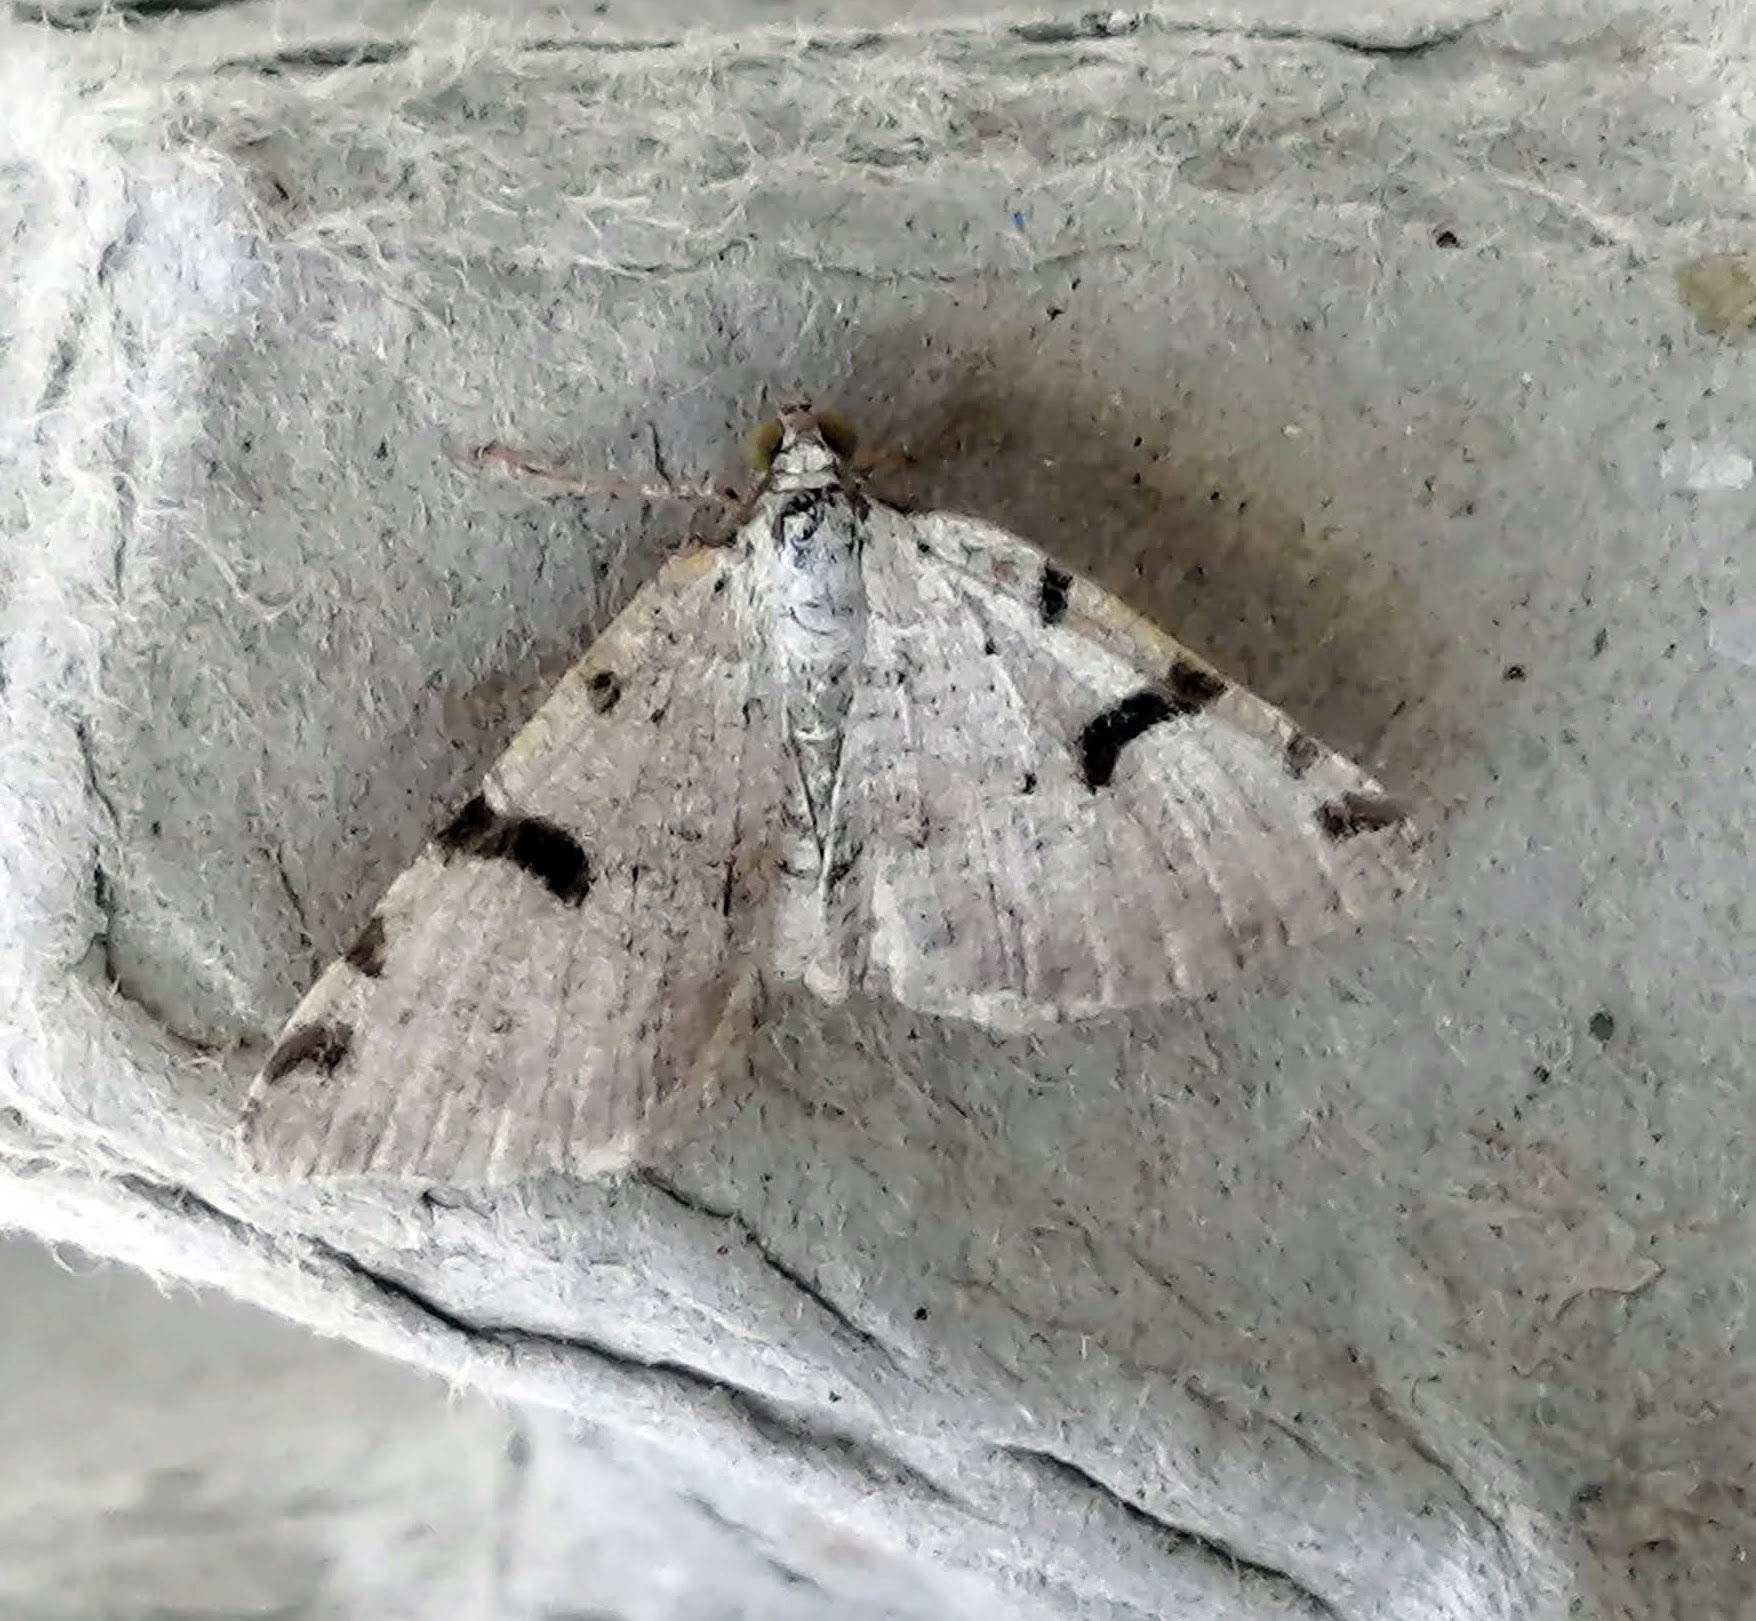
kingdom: Animalia
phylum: Arthropoda
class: Insecta
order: Lepidoptera
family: Geometridae
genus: Macaria
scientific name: Macaria subcessaria
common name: Barred angle
